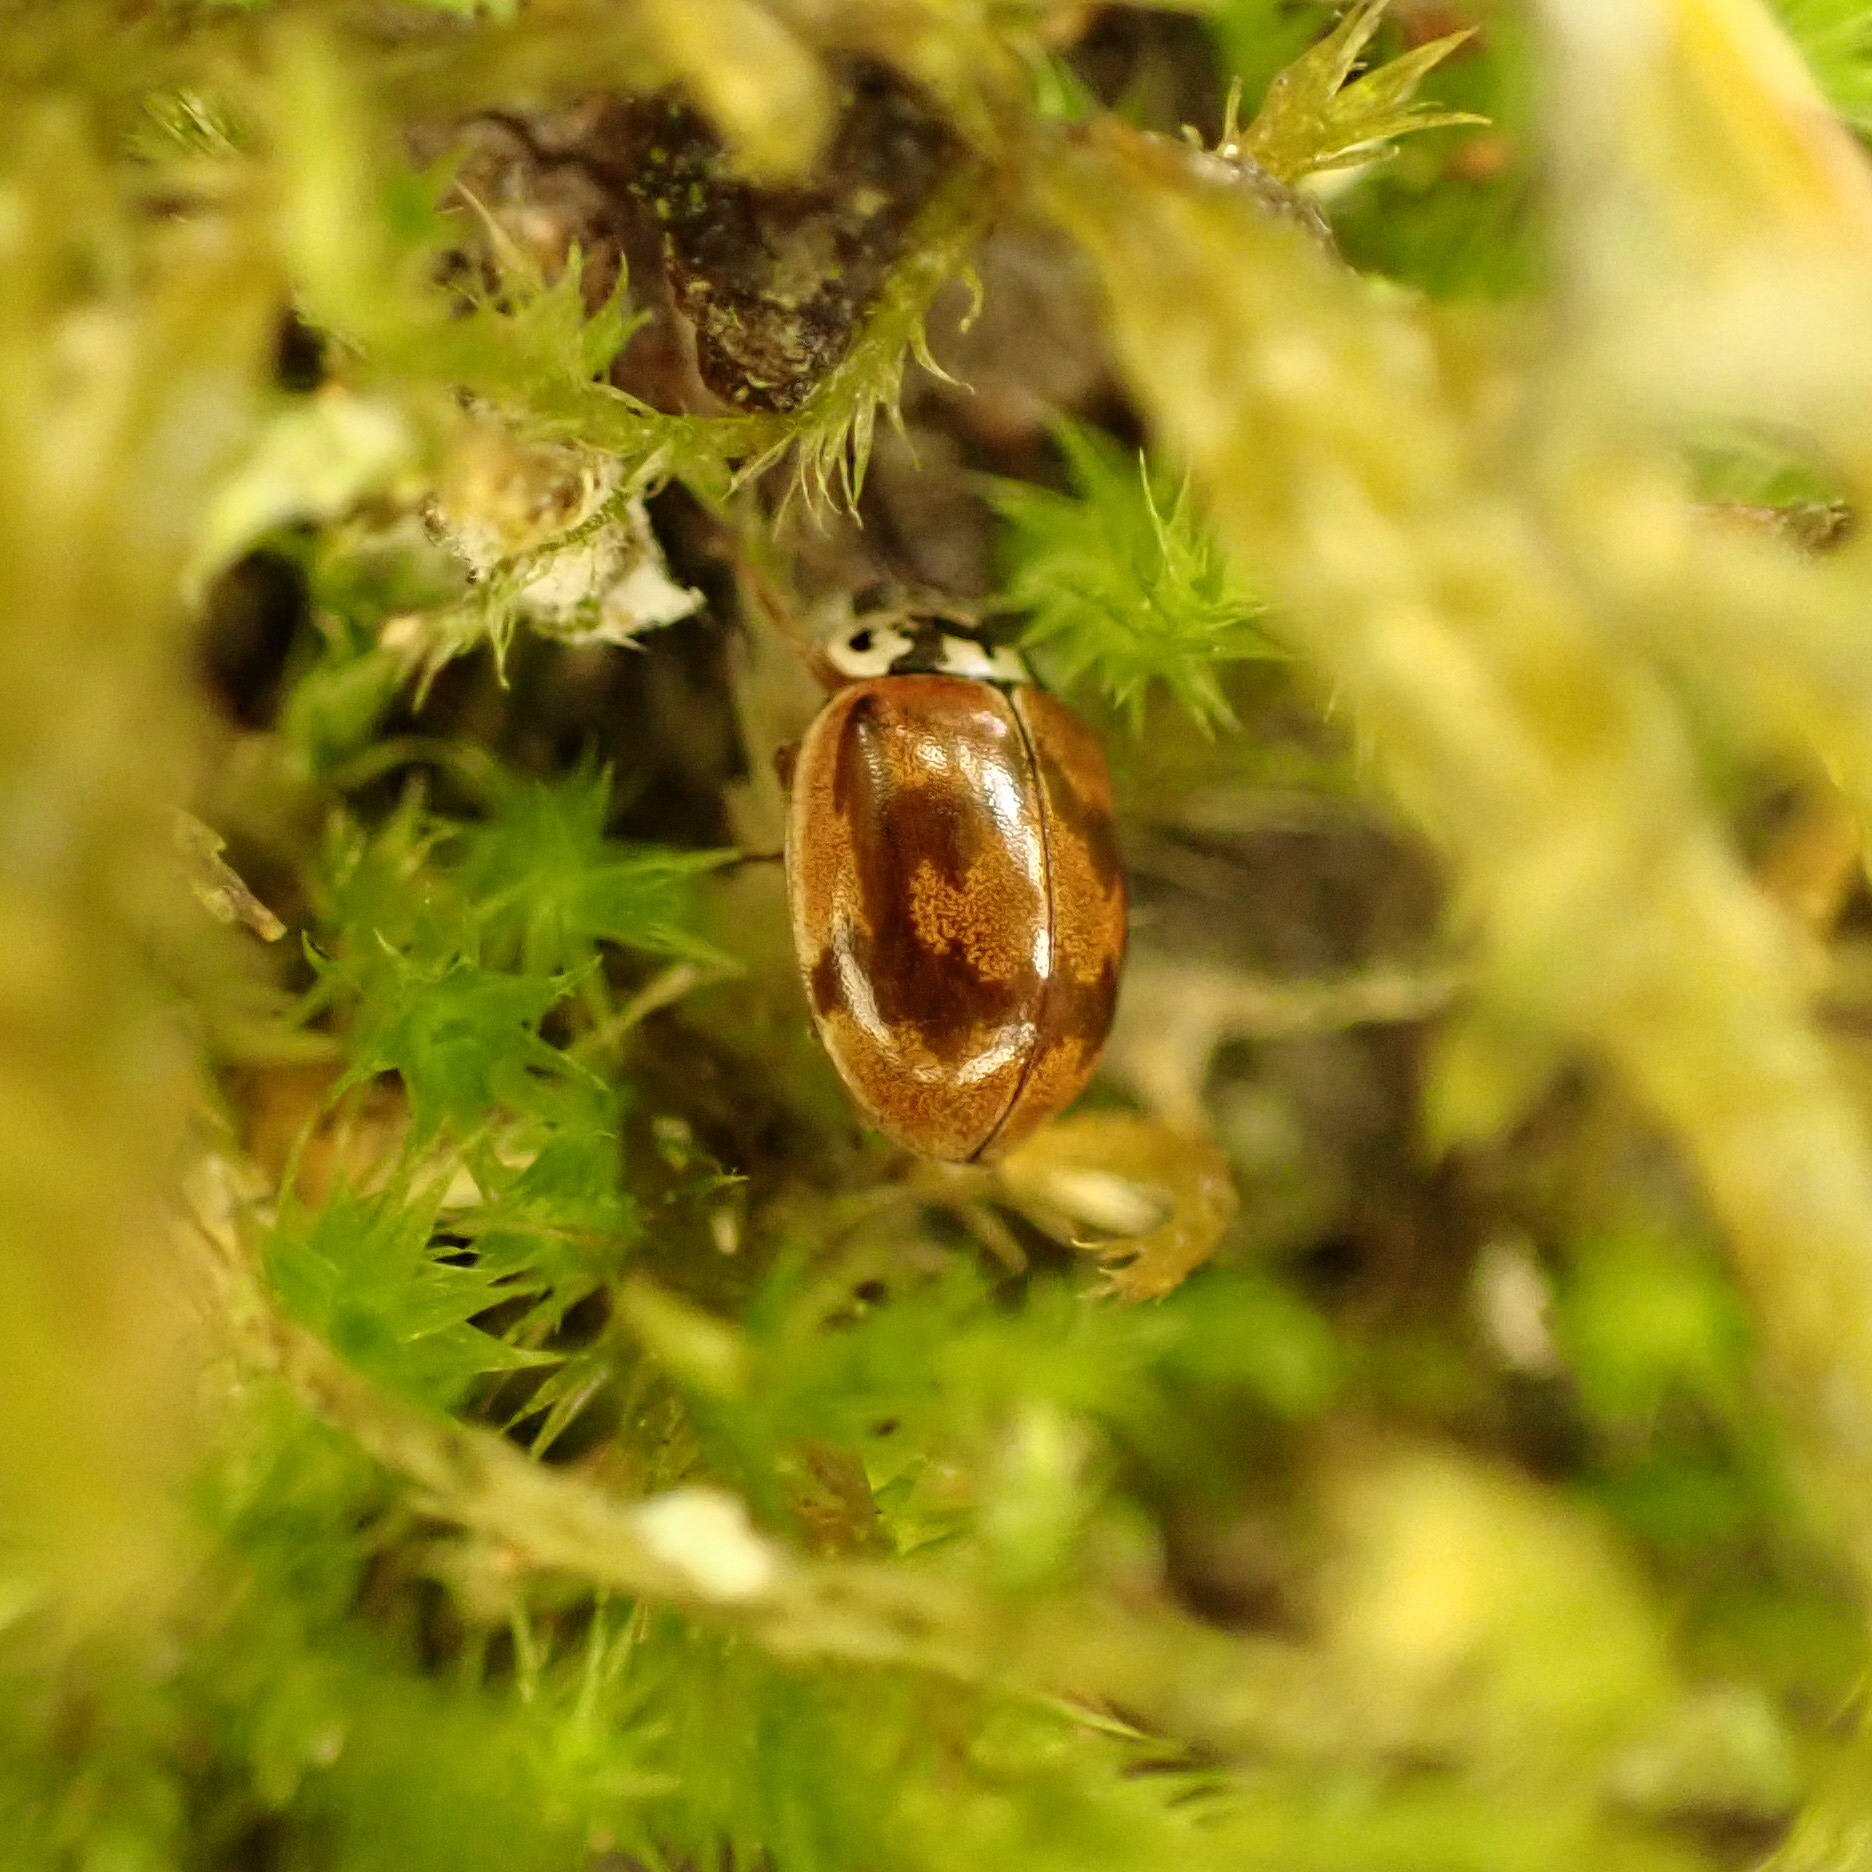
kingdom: Animalia
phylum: Arthropoda
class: Insecta
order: Coleoptera
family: Coccinellidae
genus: Mulsantina
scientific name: Mulsantina picta
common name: Painted ladybird
